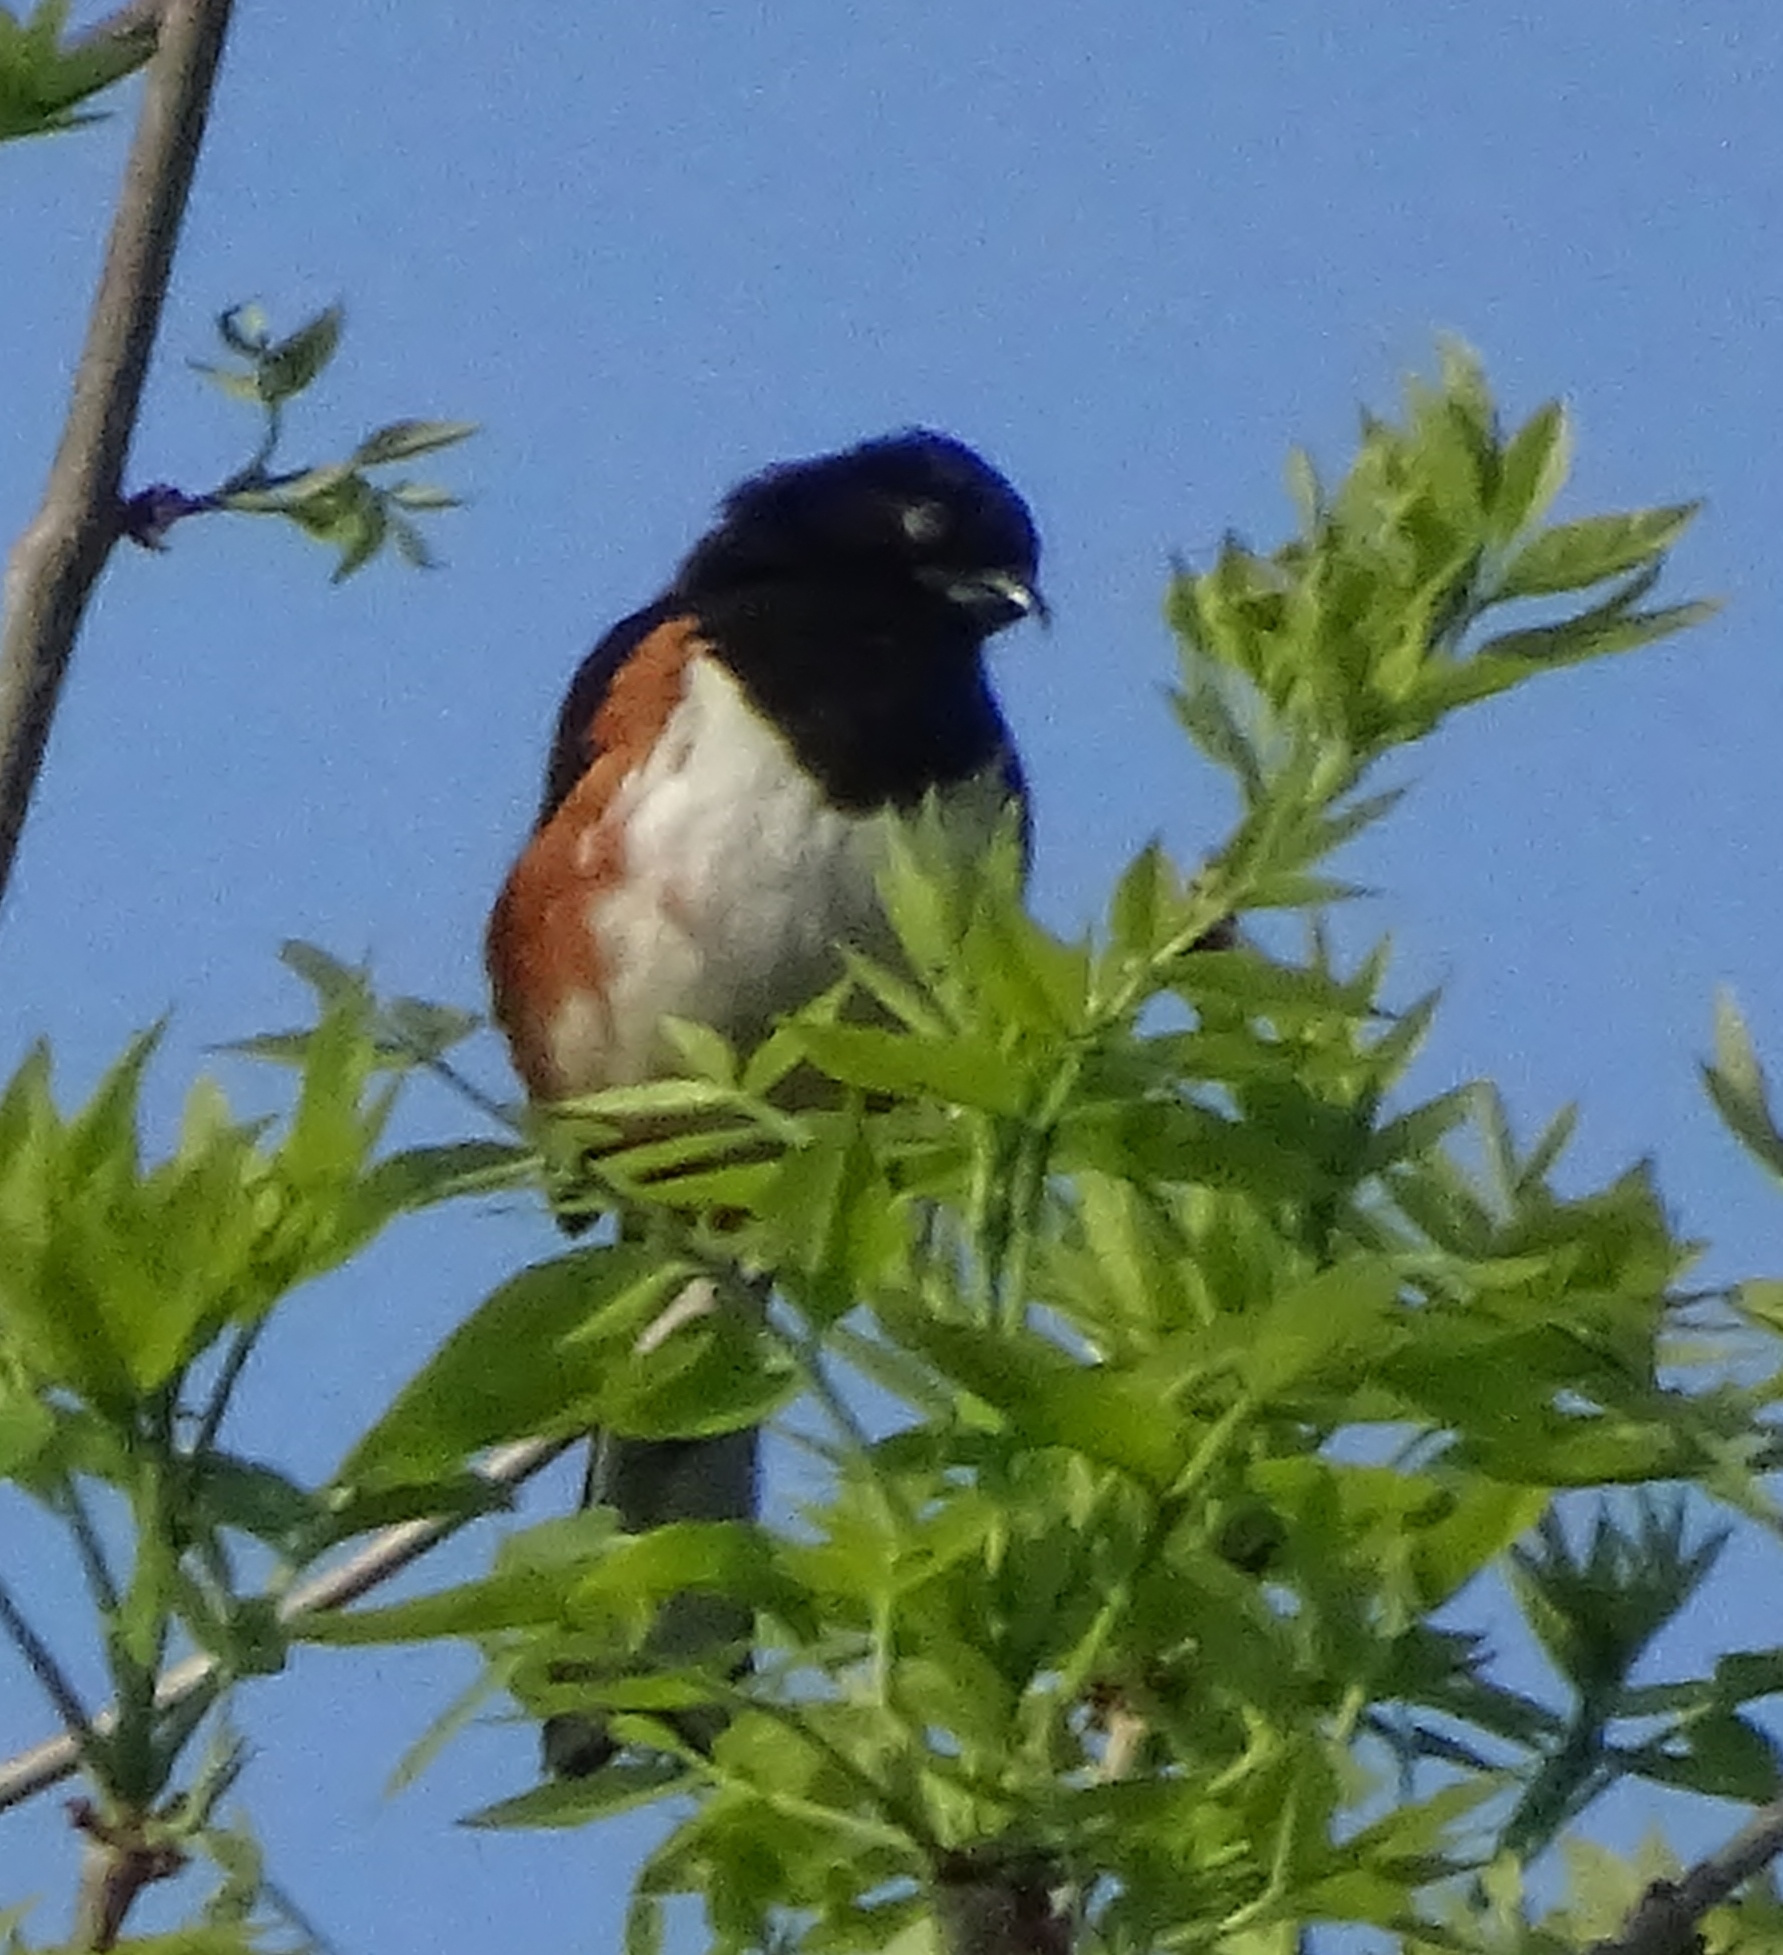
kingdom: Animalia
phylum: Chordata
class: Aves
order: Passeriformes
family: Passerellidae
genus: Pipilo
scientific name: Pipilo erythrophthalmus
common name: Eastern towhee
